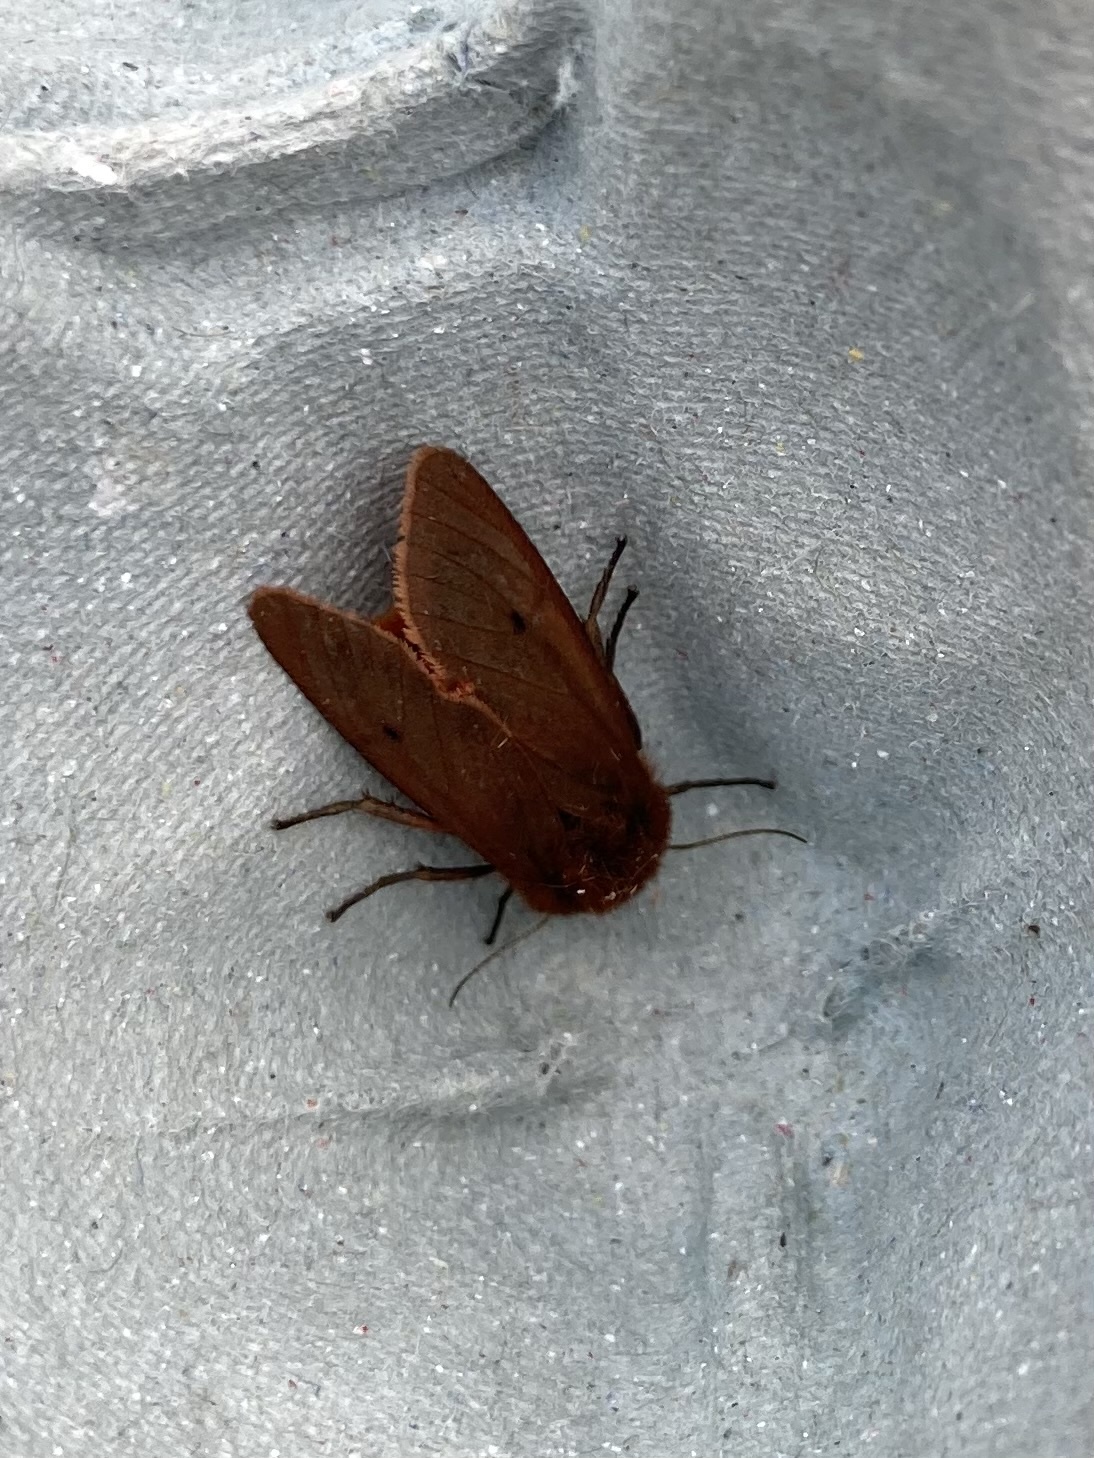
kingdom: Animalia
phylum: Arthropoda
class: Insecta
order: Lepidoptera
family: Erebidae
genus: Phragmatobia
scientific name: Phragmatobia fuliginosa
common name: Ruby tiger
